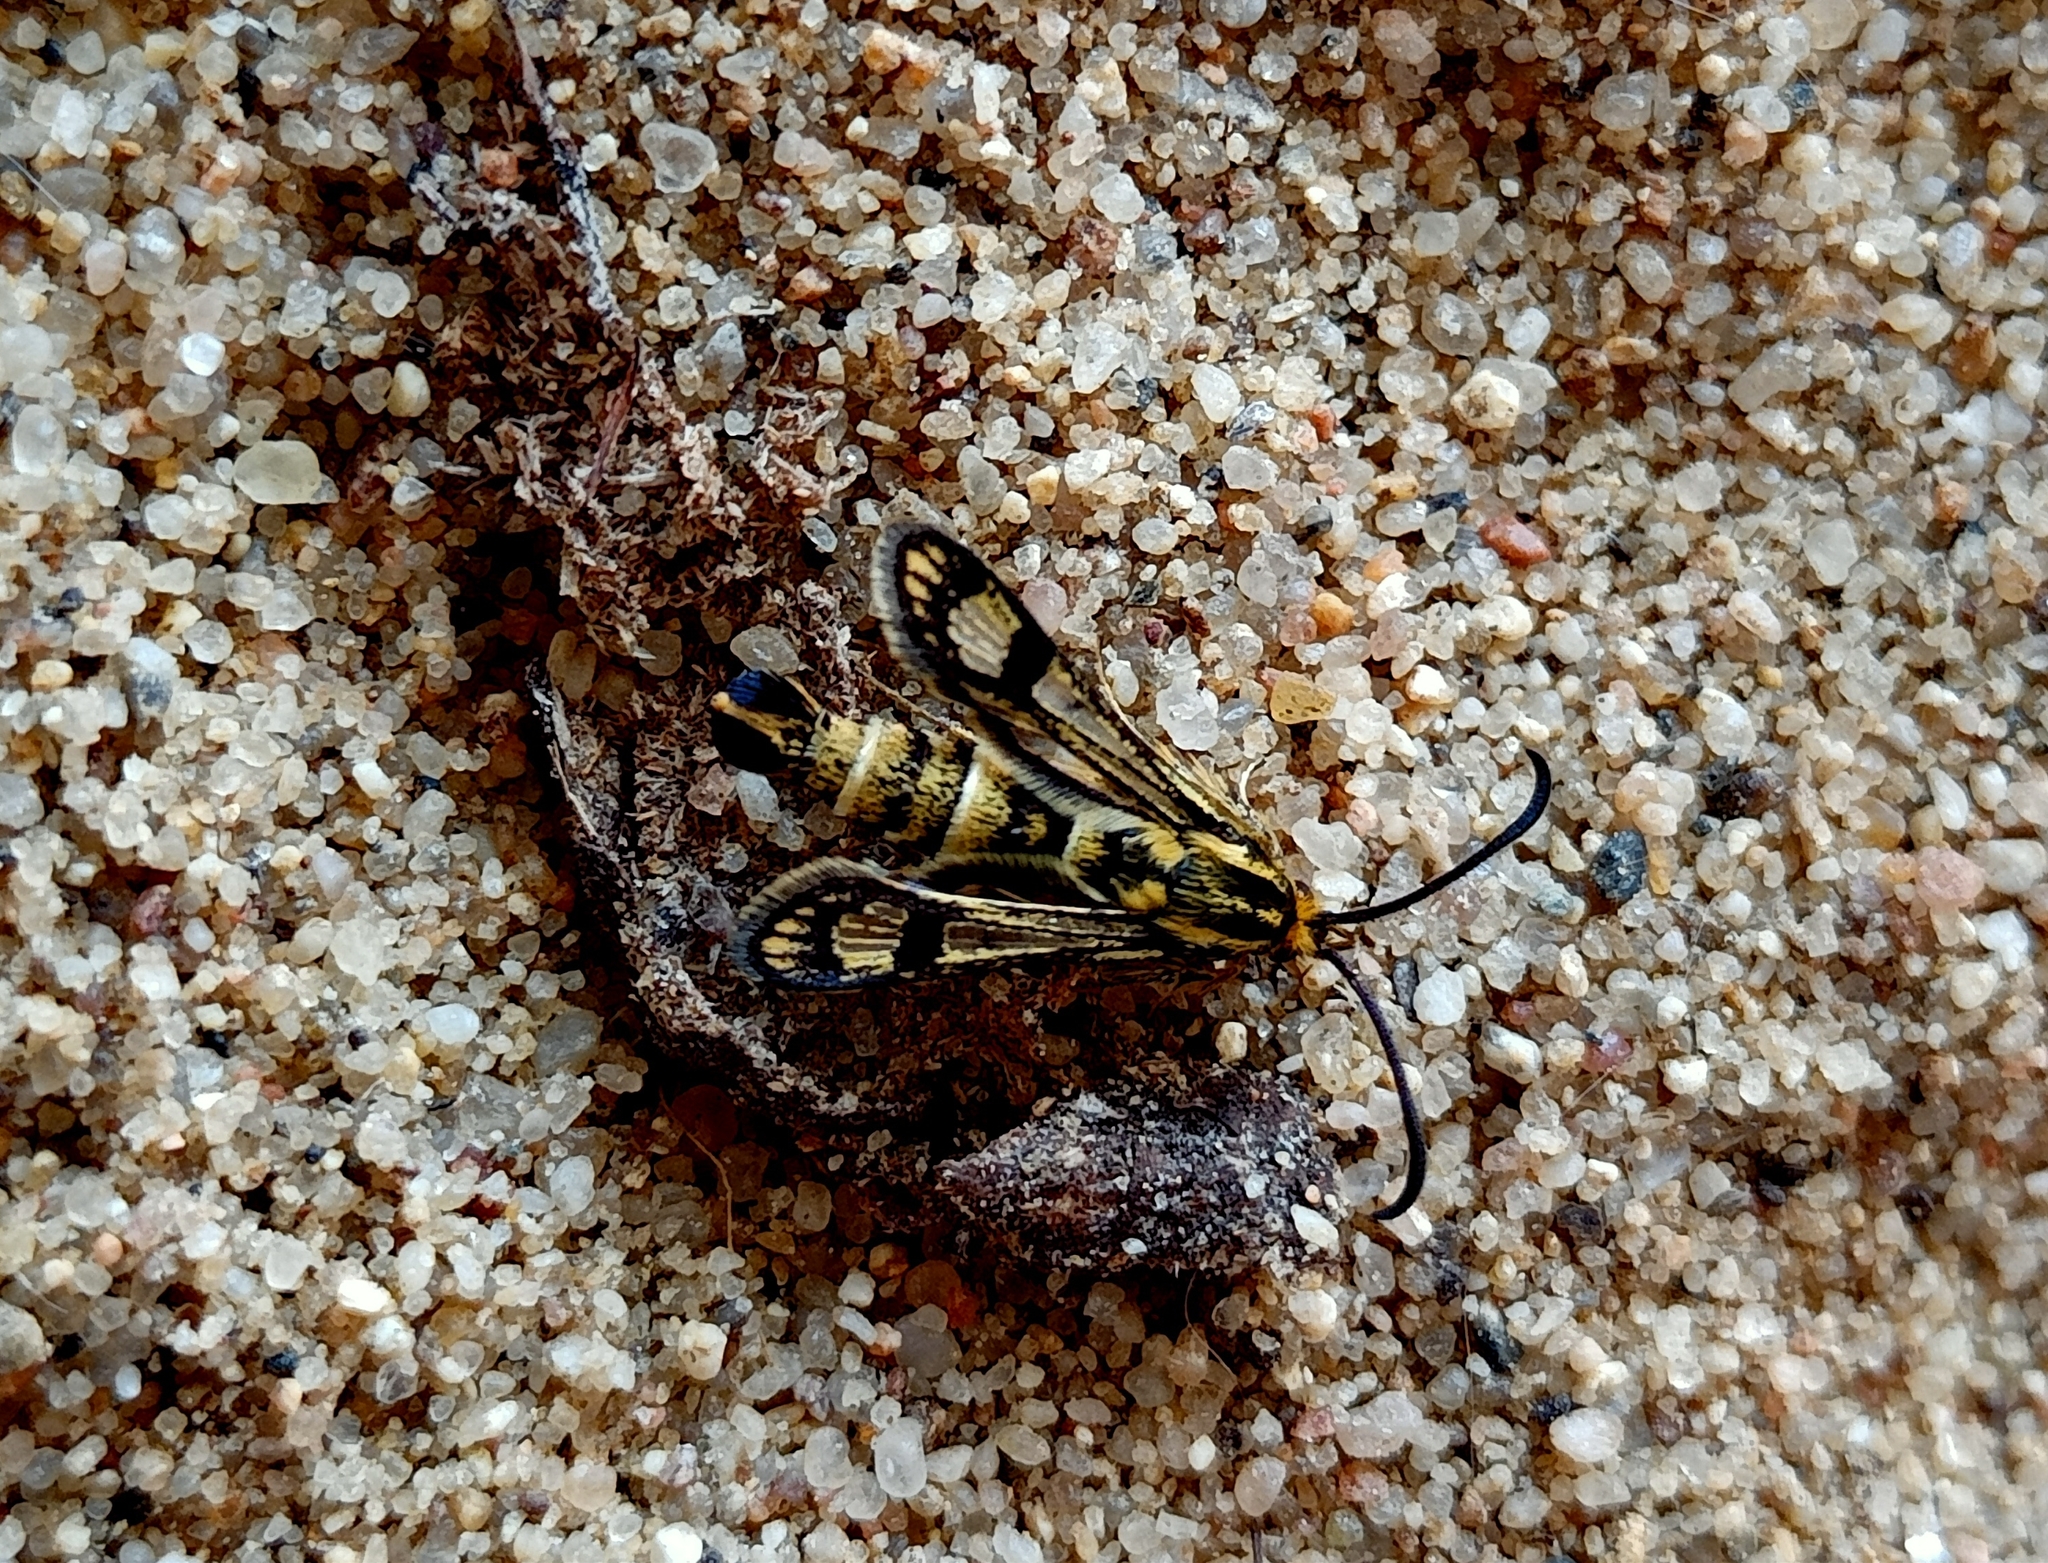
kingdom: Animalia
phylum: Arthropoda
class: Insecta
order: Lepidoptera
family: Sesiidae
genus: Chamaesphecia
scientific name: Chamaesphecia empiformis
